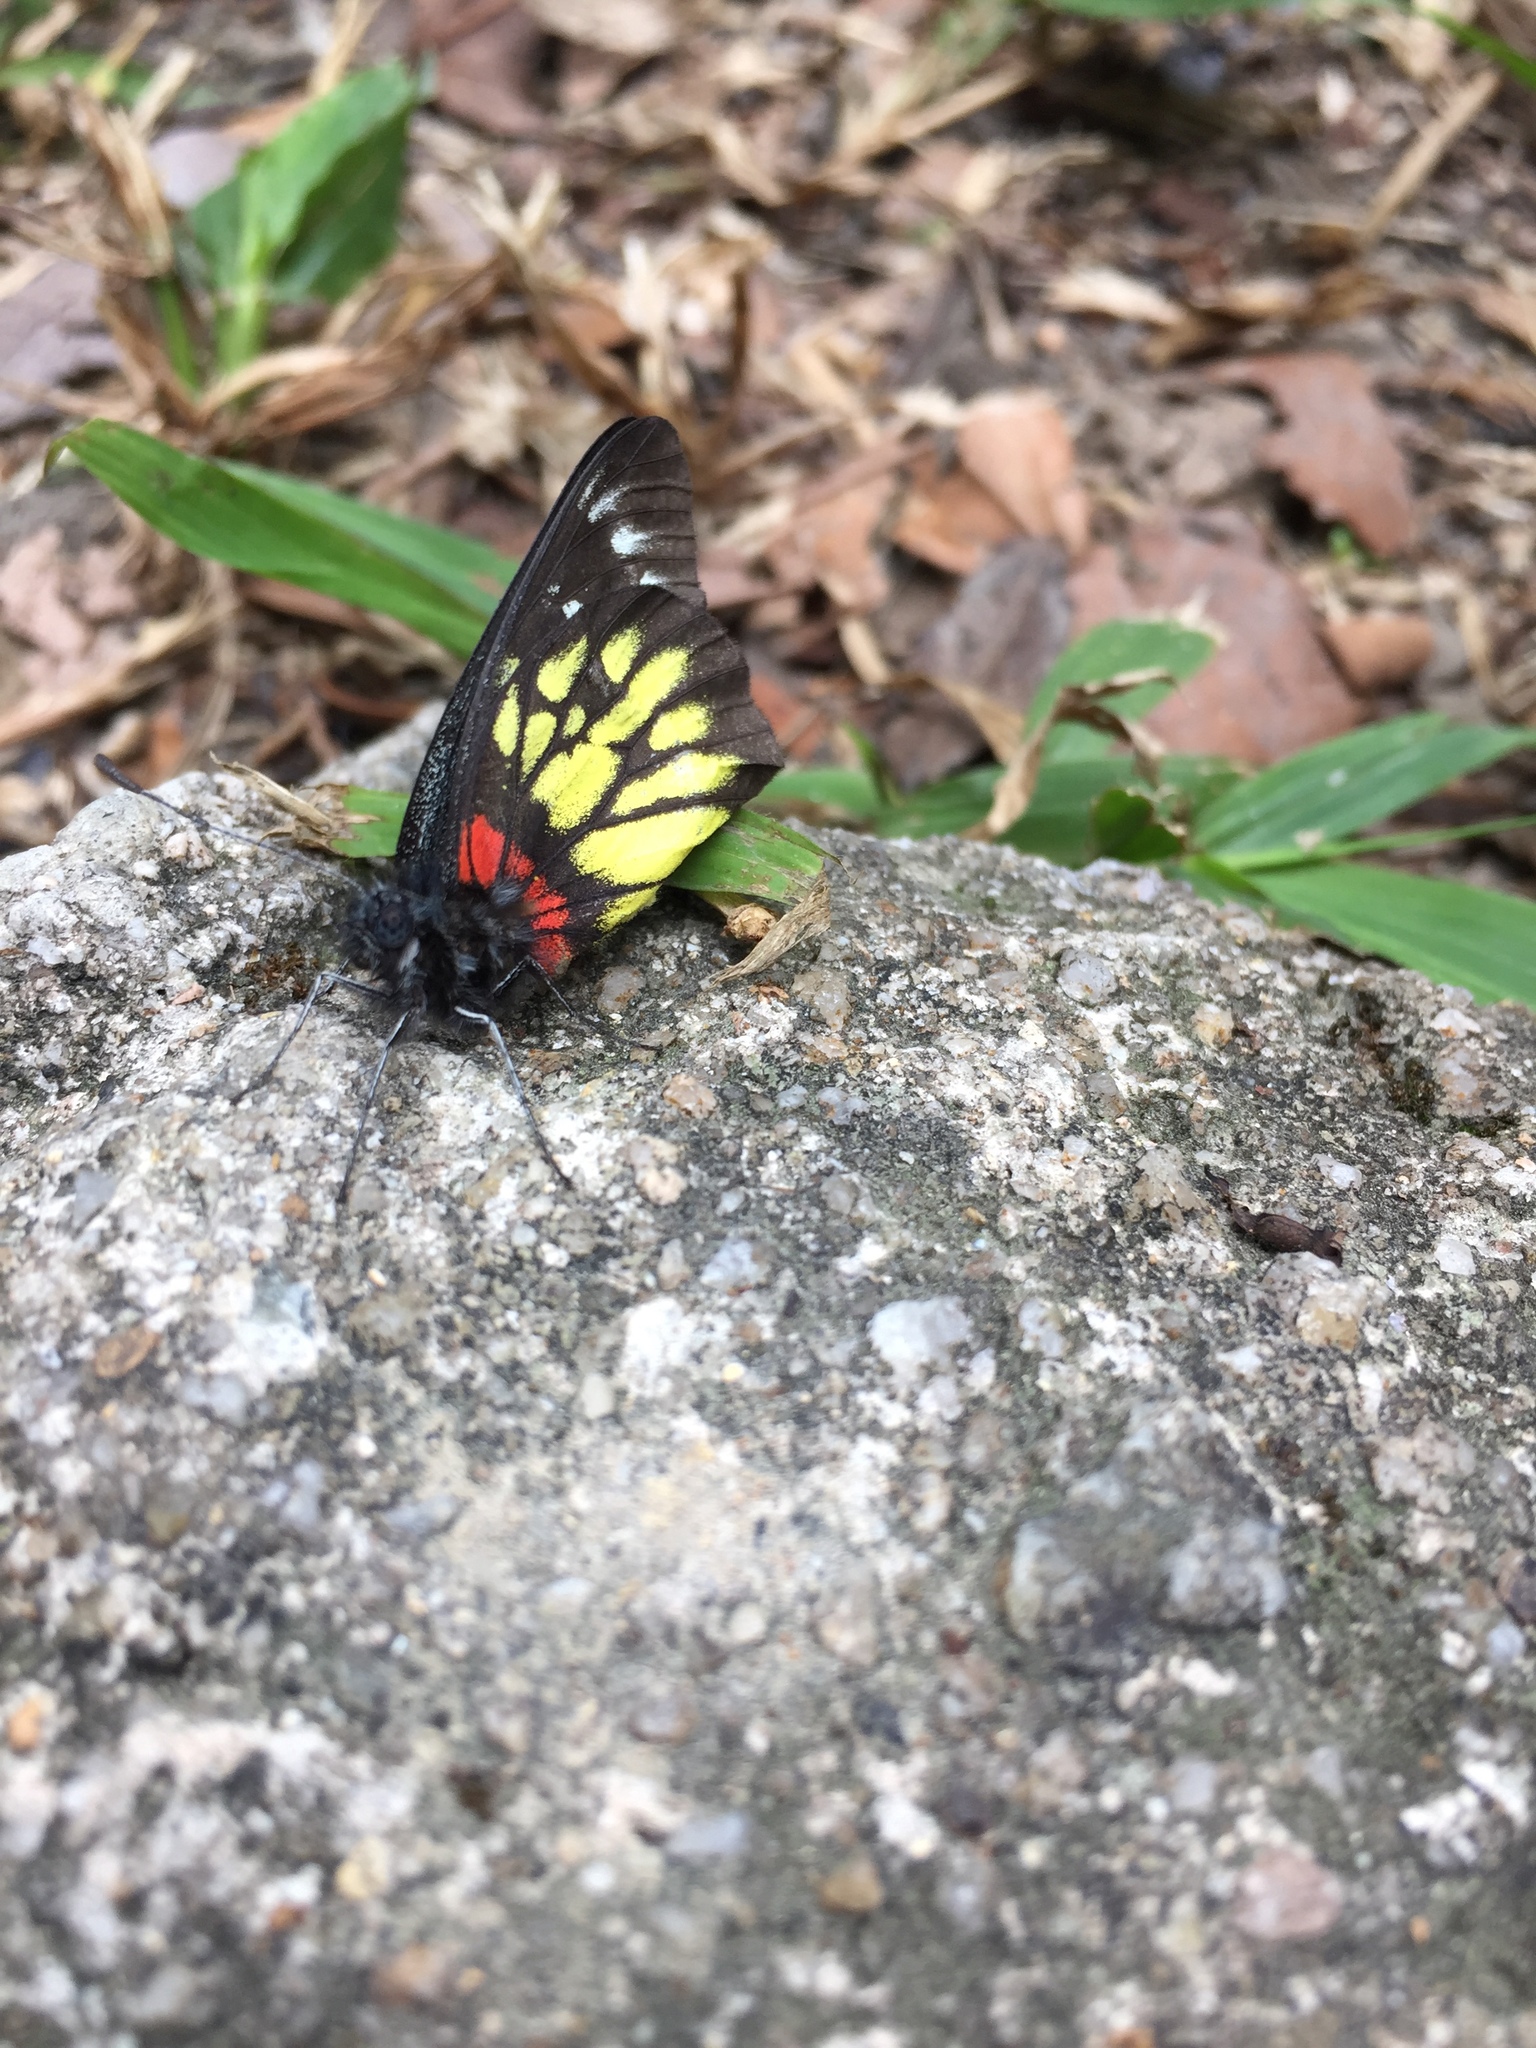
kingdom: Animalia
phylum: Arthropoda
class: Insecta
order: Lepidoptera
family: Pieridae
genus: Delias
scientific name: Delias pasithoe
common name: Red-base jezebel
